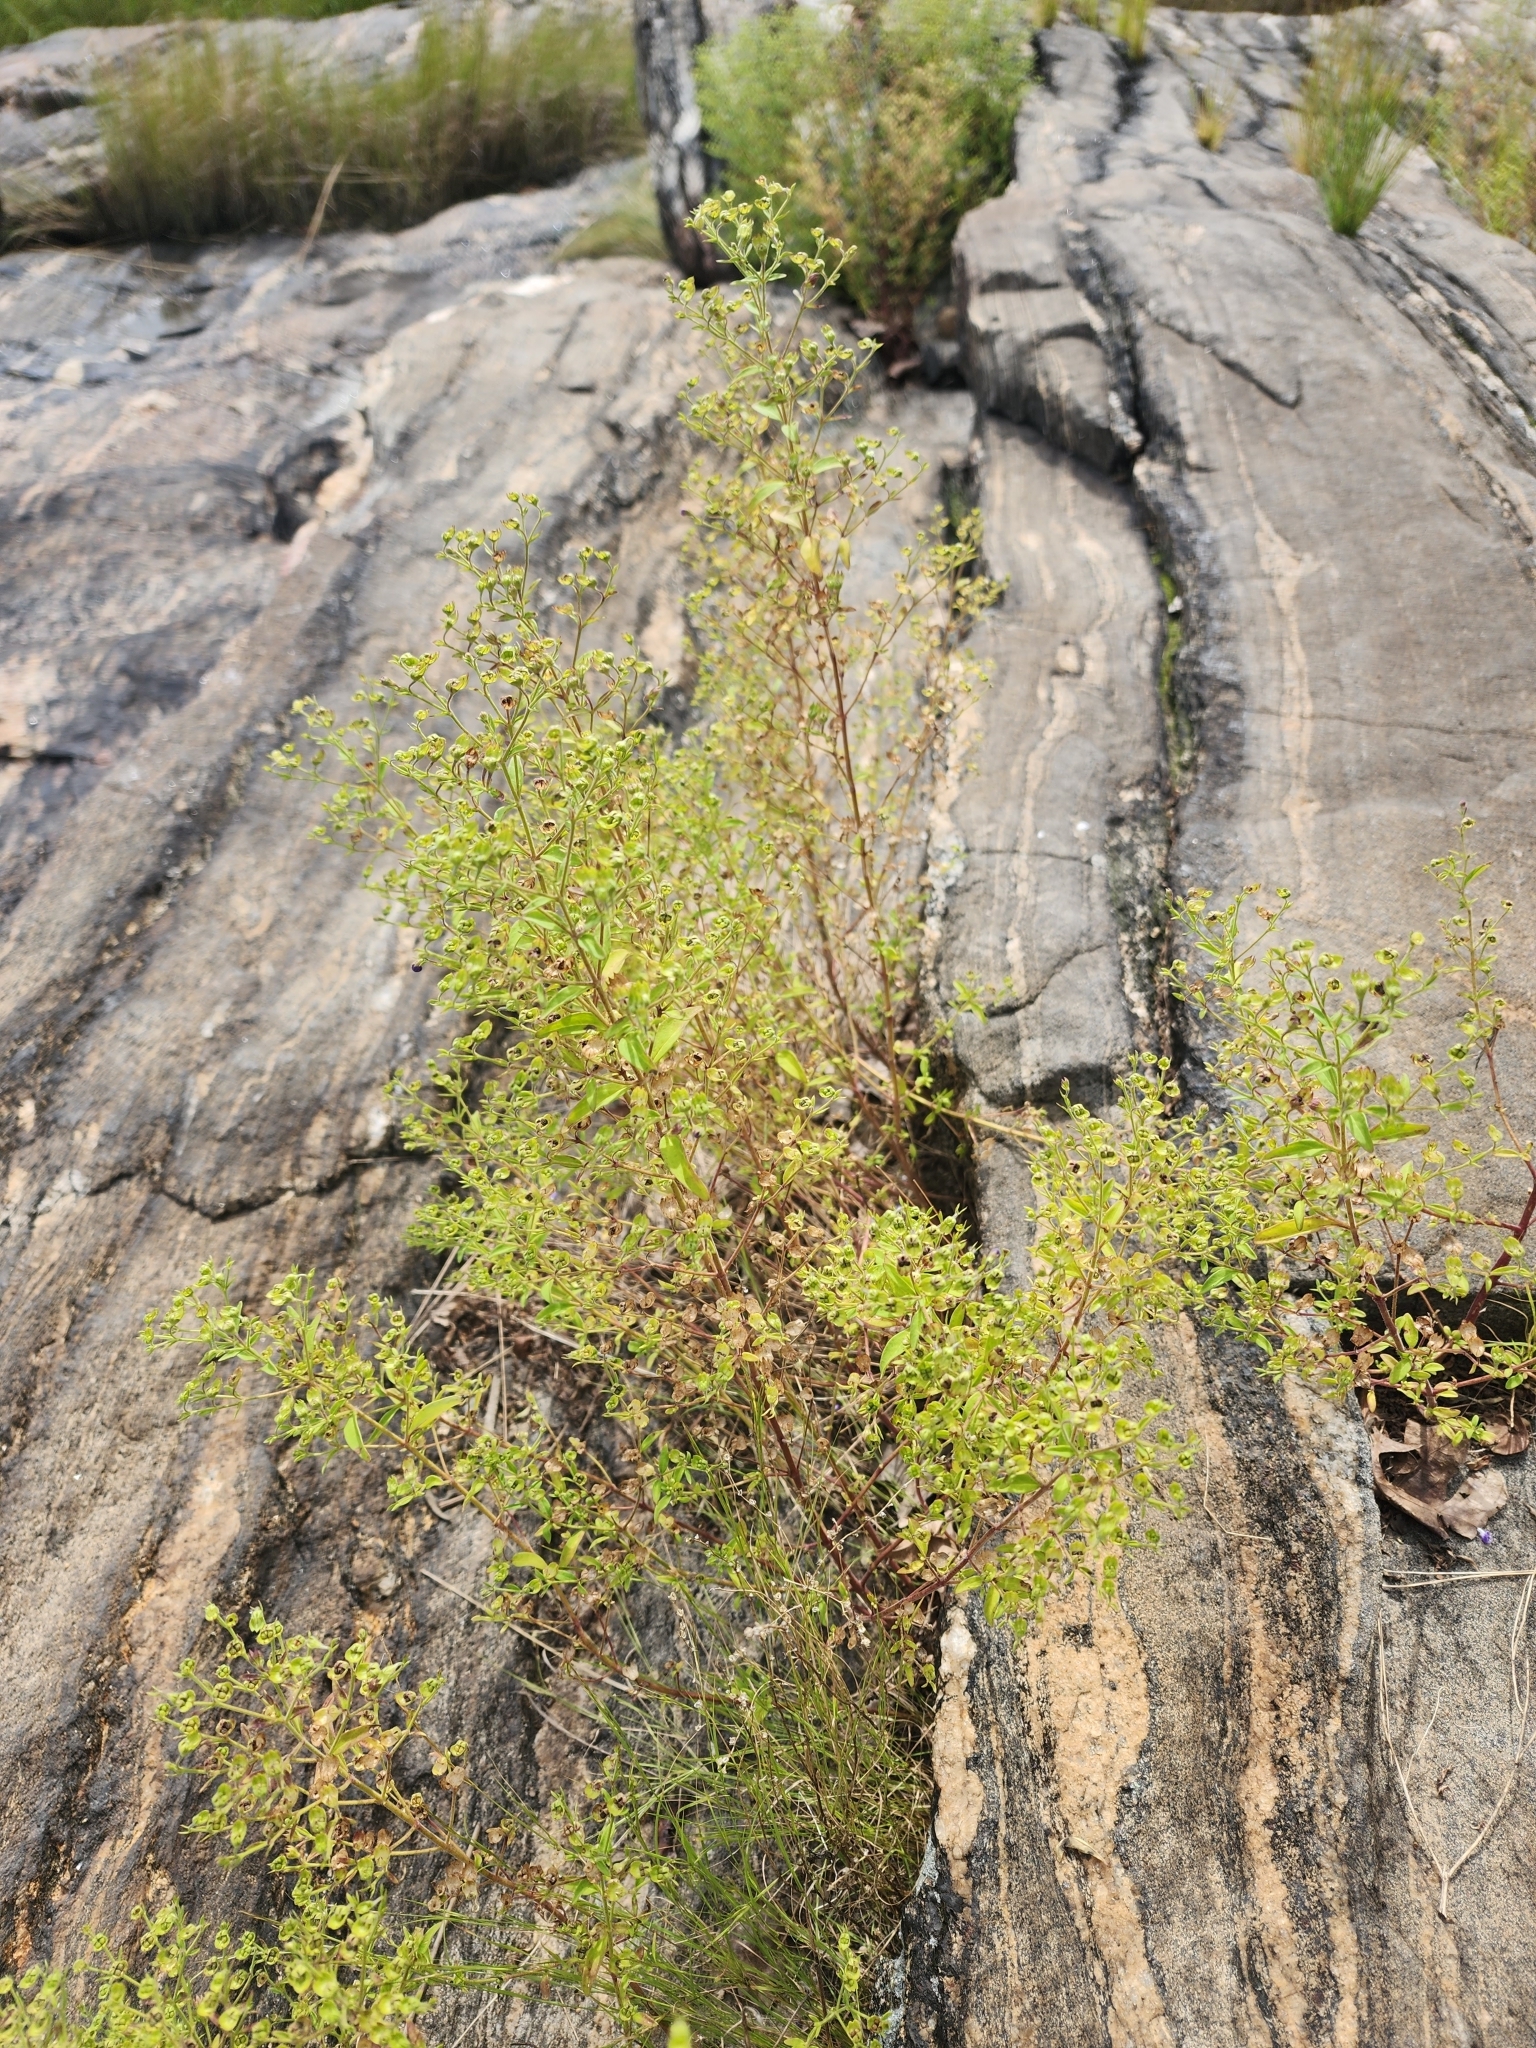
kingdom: Plantae
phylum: Tracheophyta
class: Magnoliopsida
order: Lamiales
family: Lamiaceae
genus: Trichostema
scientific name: Trichostema dichotomum
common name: Bastard pennyroyal
